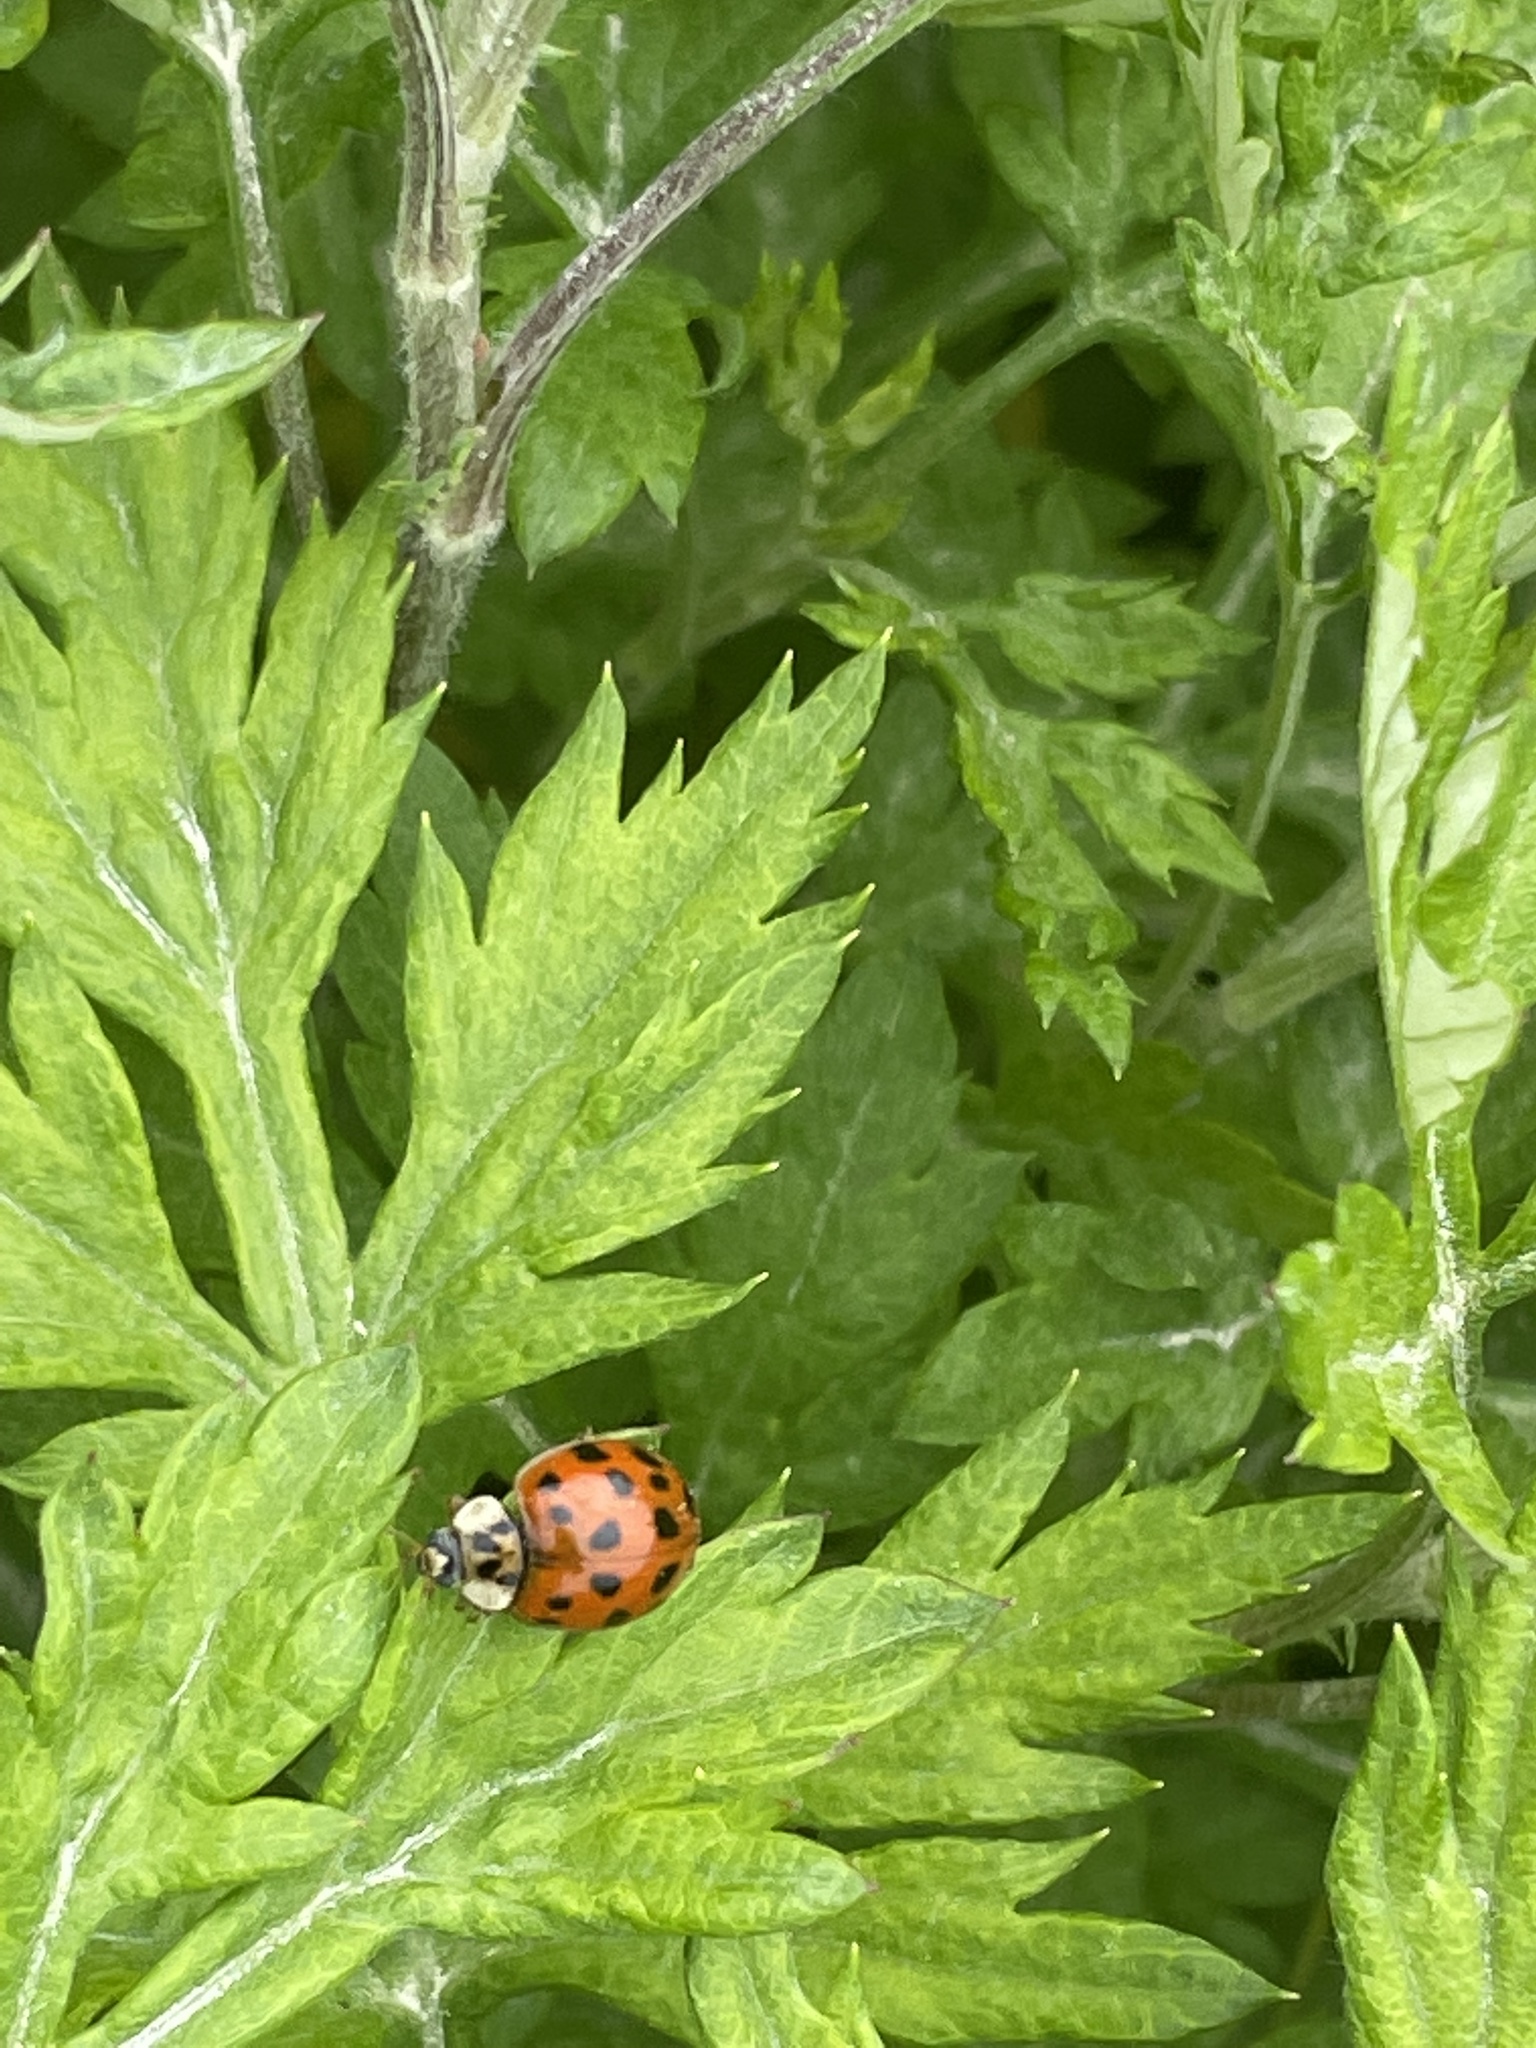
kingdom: Animalia
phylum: Arthropoda
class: Insecta
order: Coleoptera
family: Coccinellidae
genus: Harmonia
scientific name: Harmonia axyridis
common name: Harlequin ladybird
